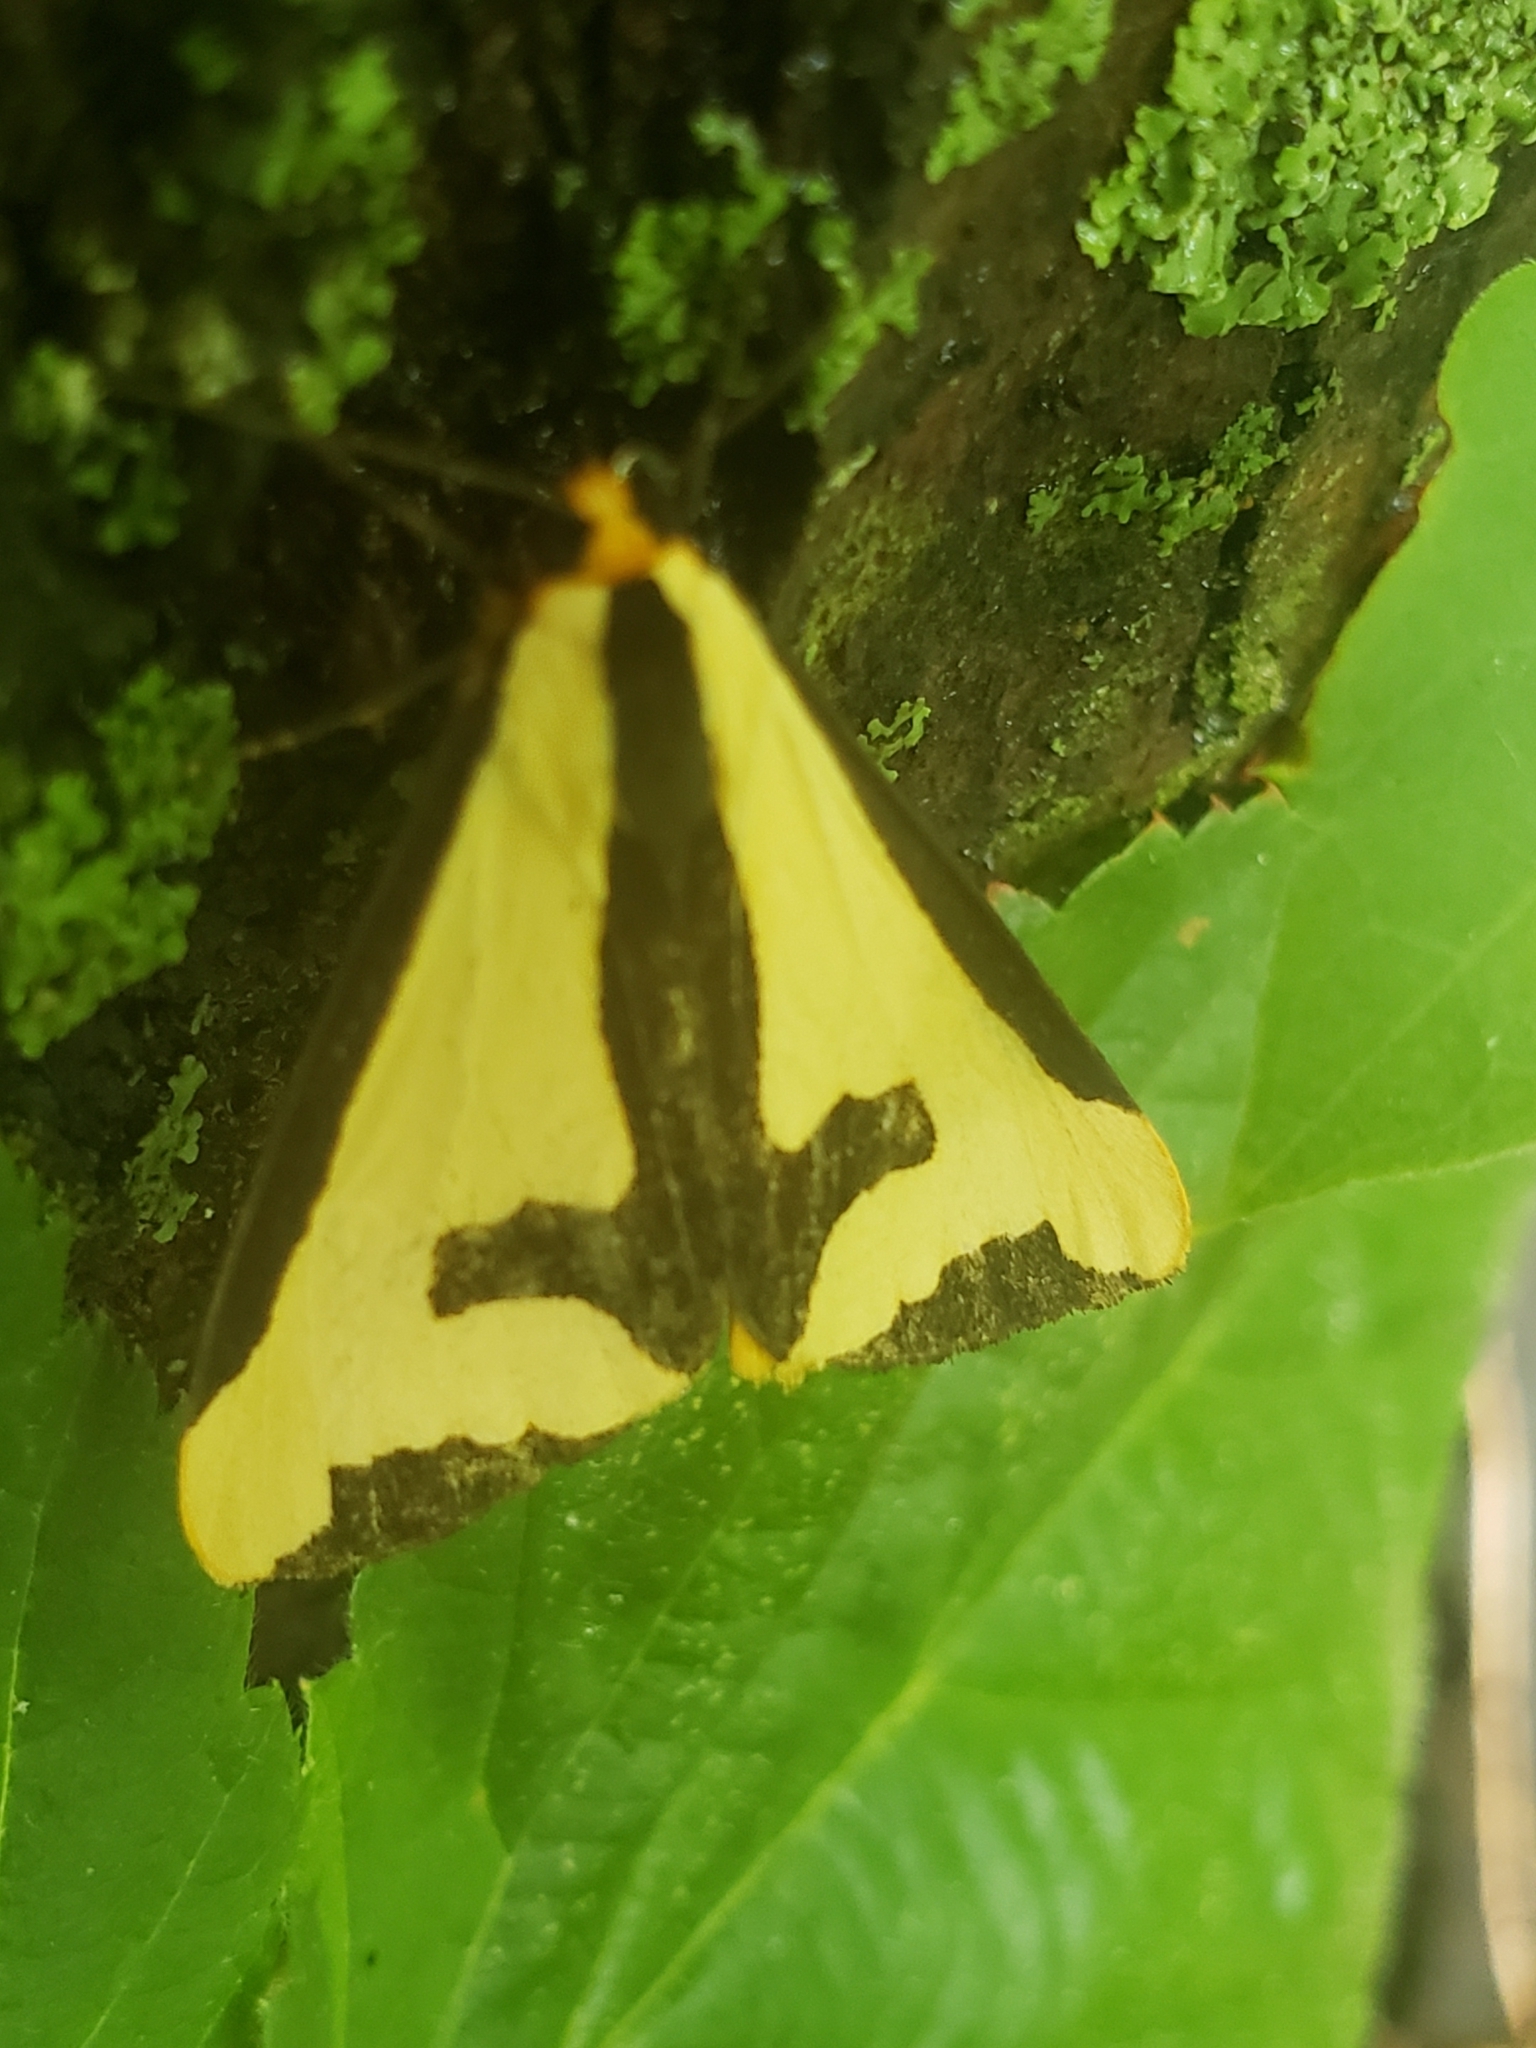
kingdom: Animalia
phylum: Arthropoda
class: Insecta
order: Lepidoptera
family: Erebidae
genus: Haploa
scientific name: Haploa clymene
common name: Clymene moth
